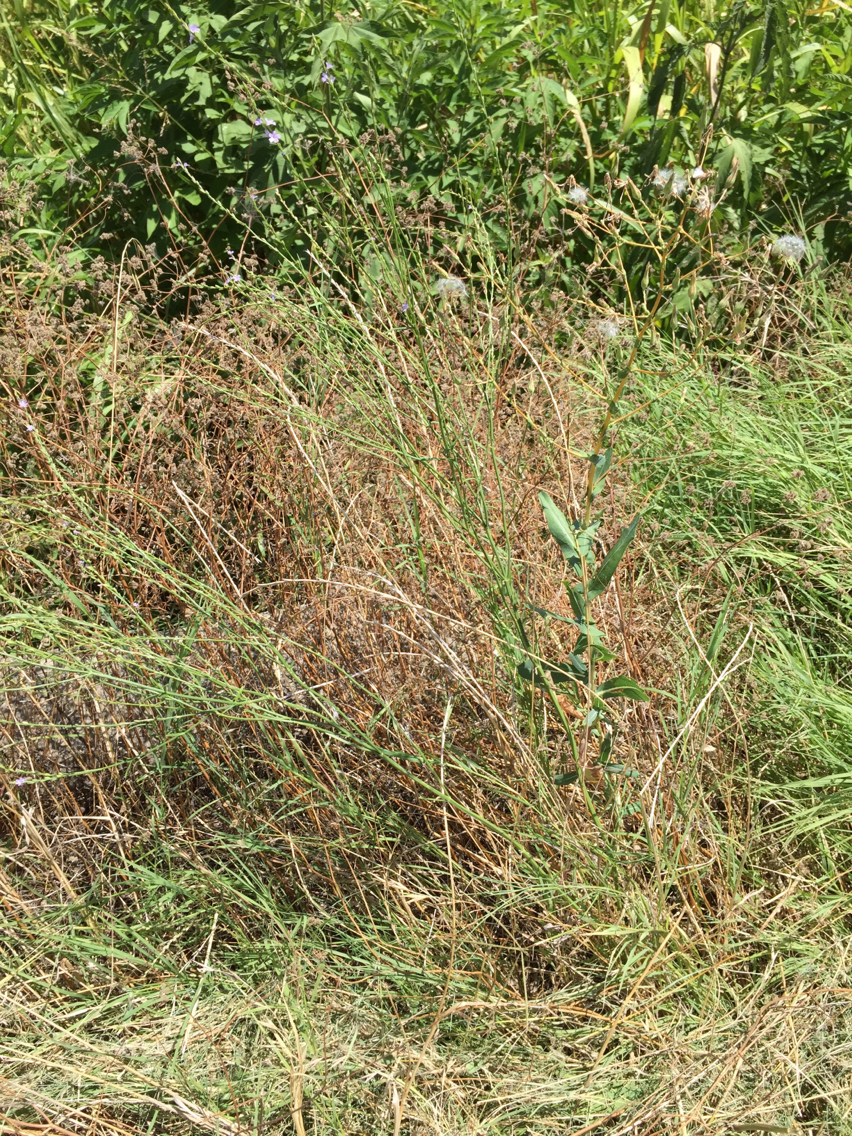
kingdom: Plantae
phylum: Tracheophyta
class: Magnoliopsida
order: Lamiales
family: Verbenaceae
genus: Verbena
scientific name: Verbena halei
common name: Texas vervain
